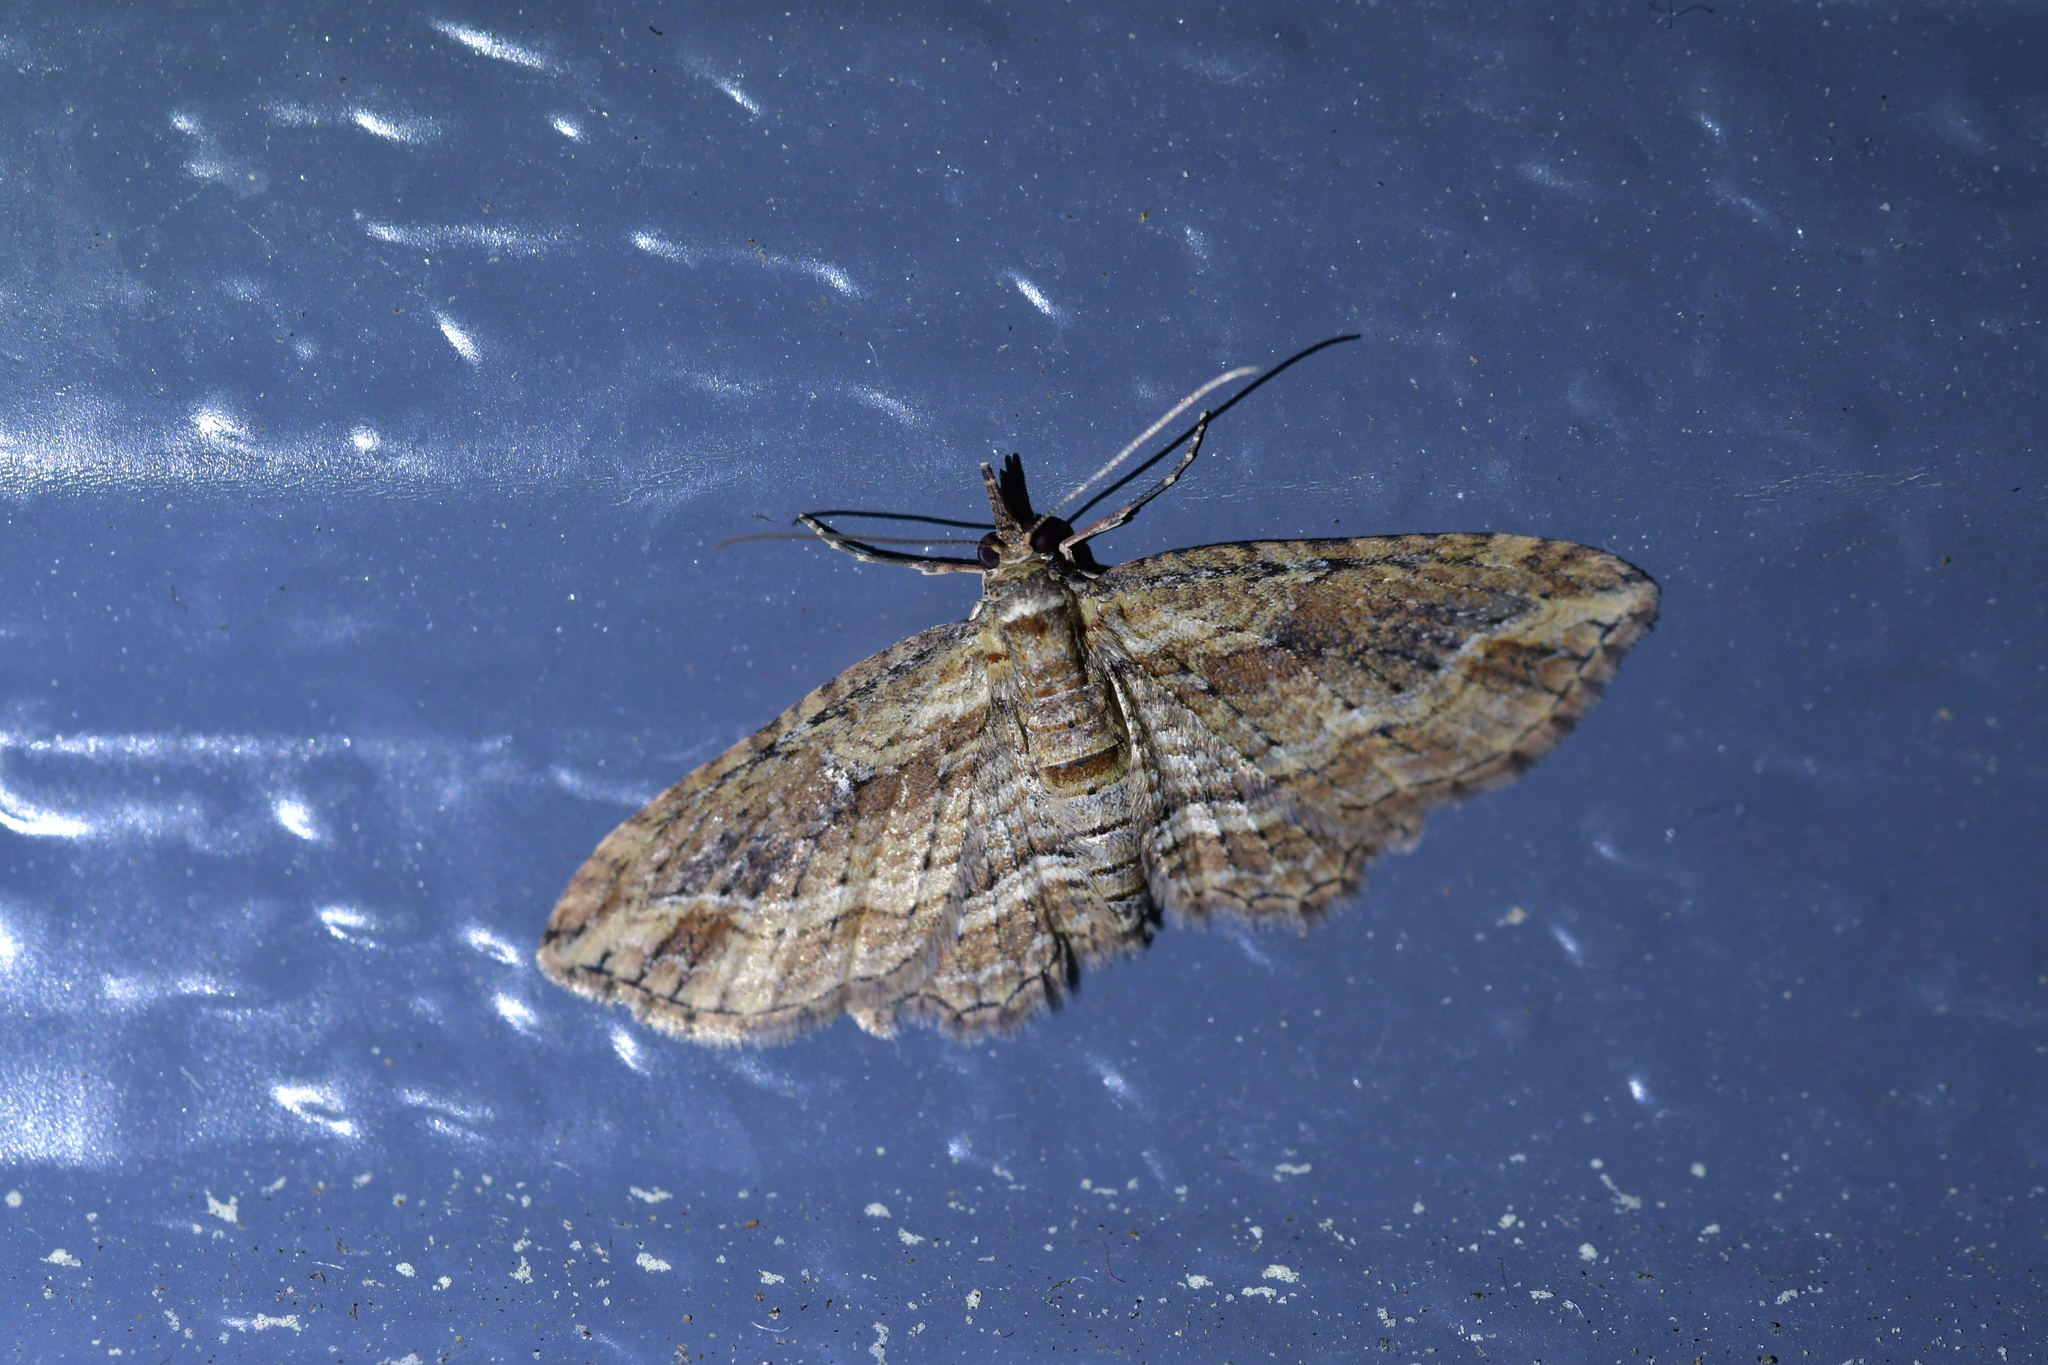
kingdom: Animalia
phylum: Arthropoda
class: Insecta
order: Lepidoptera
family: Geometridae
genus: Chloroclystis
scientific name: Chloroclystis filata
